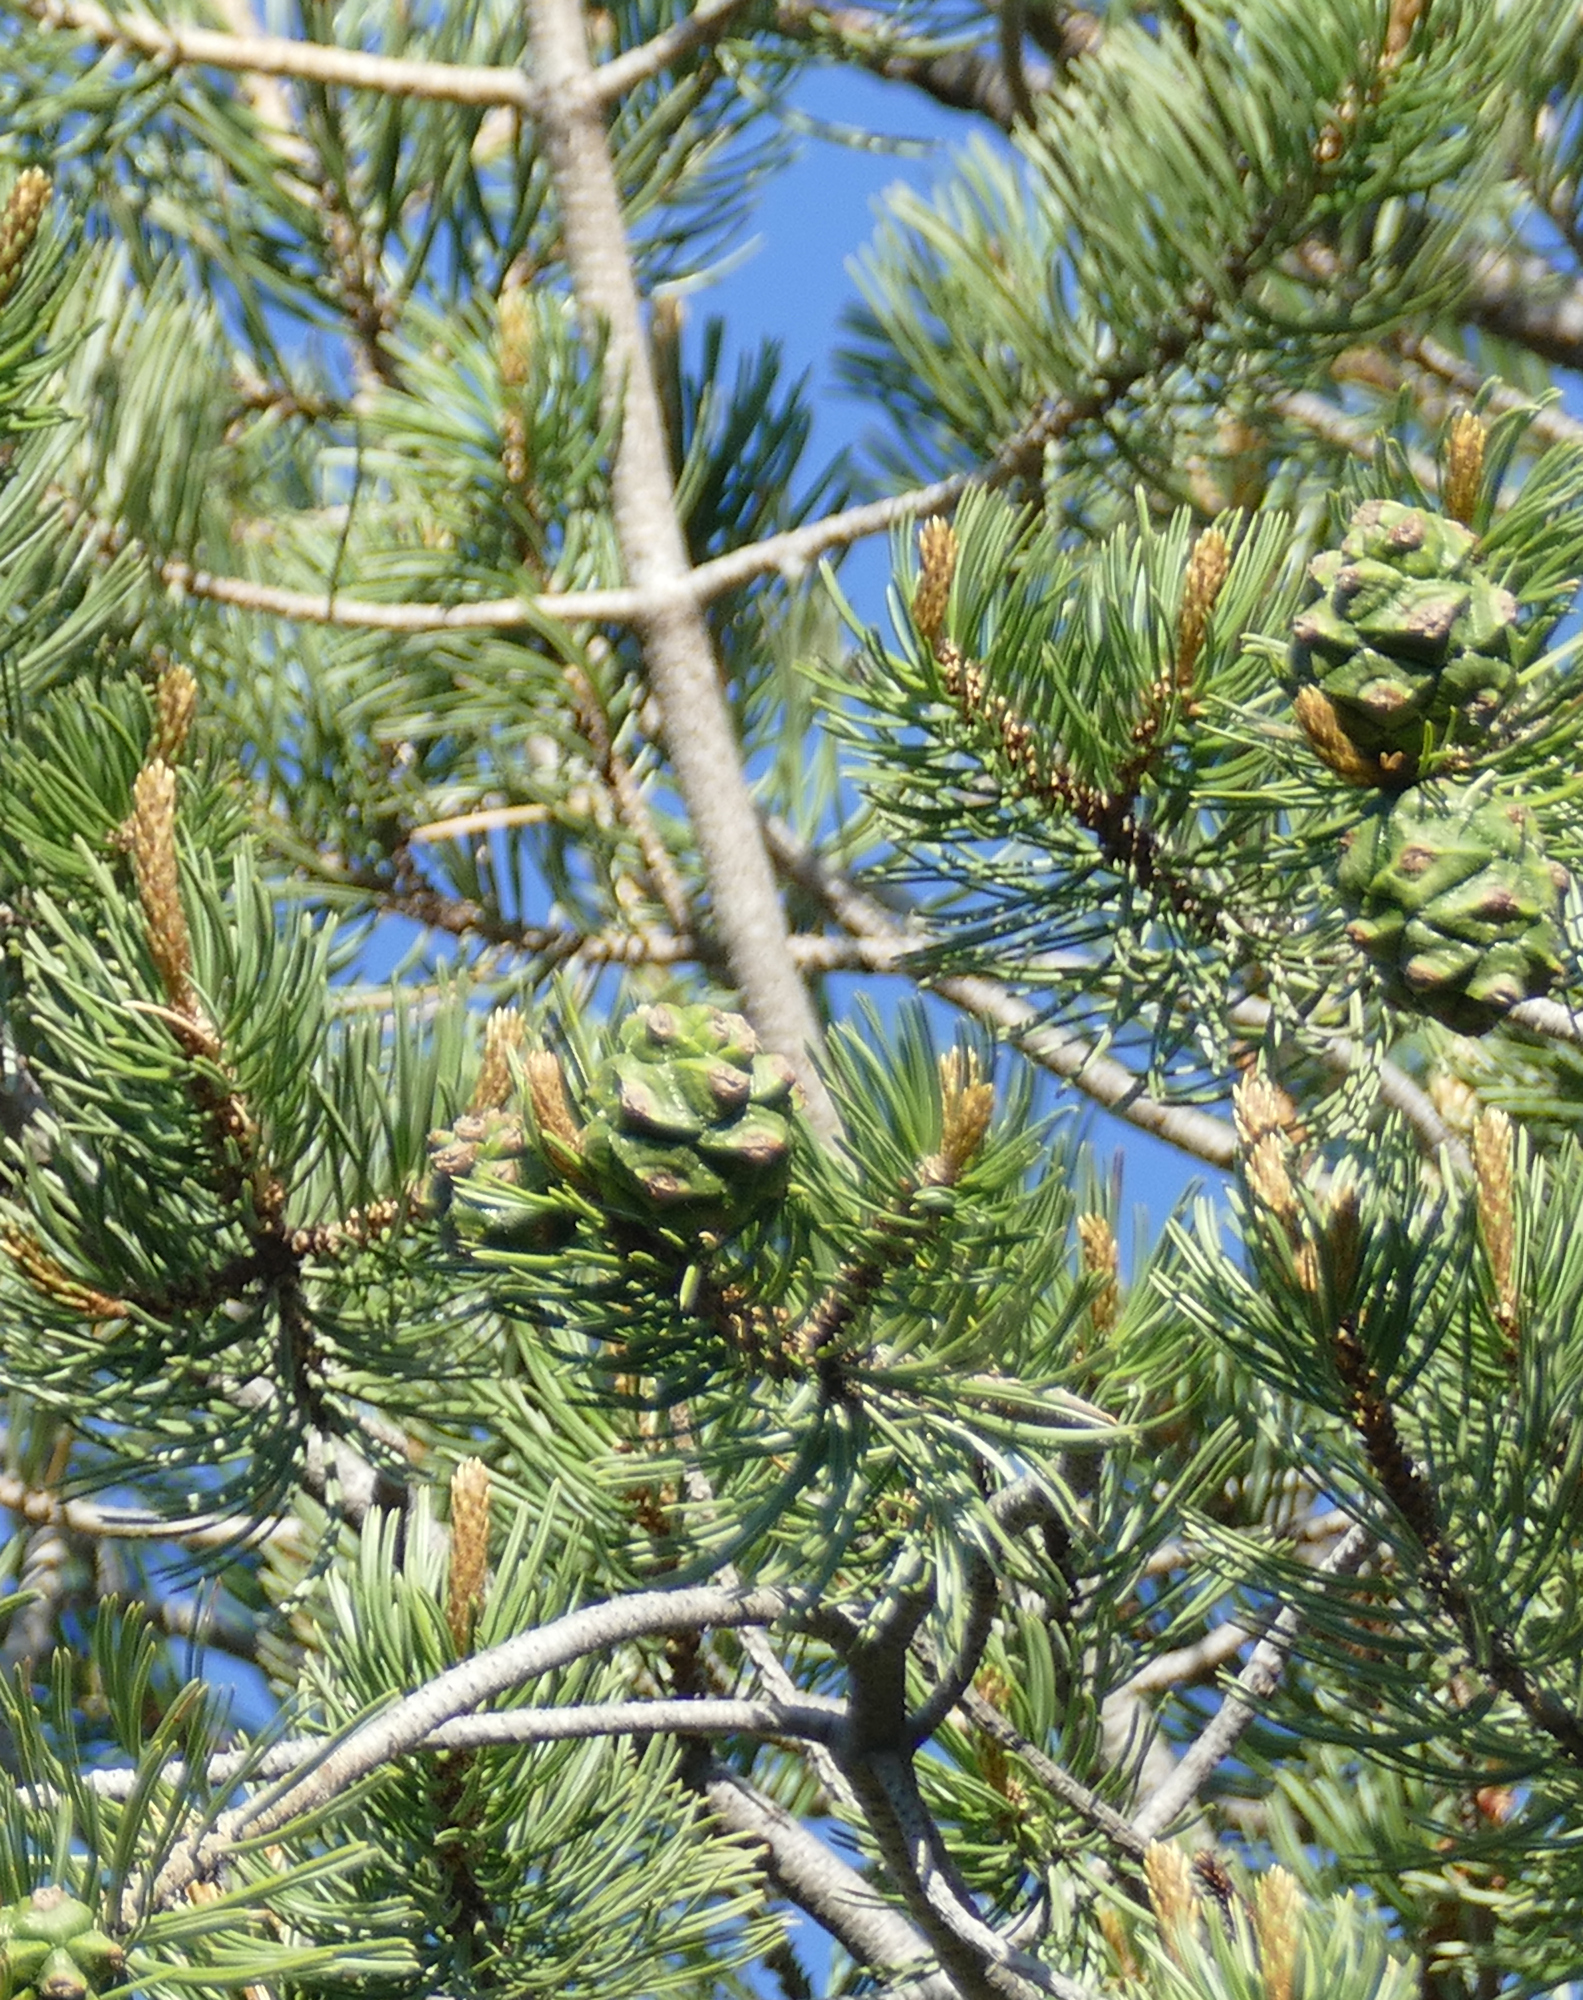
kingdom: Plantae
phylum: Tracheophyta
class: Pinopsida
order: Pinales
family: Pinaceae
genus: Pinus
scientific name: Pinus cembroides
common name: Mexican nut pine
